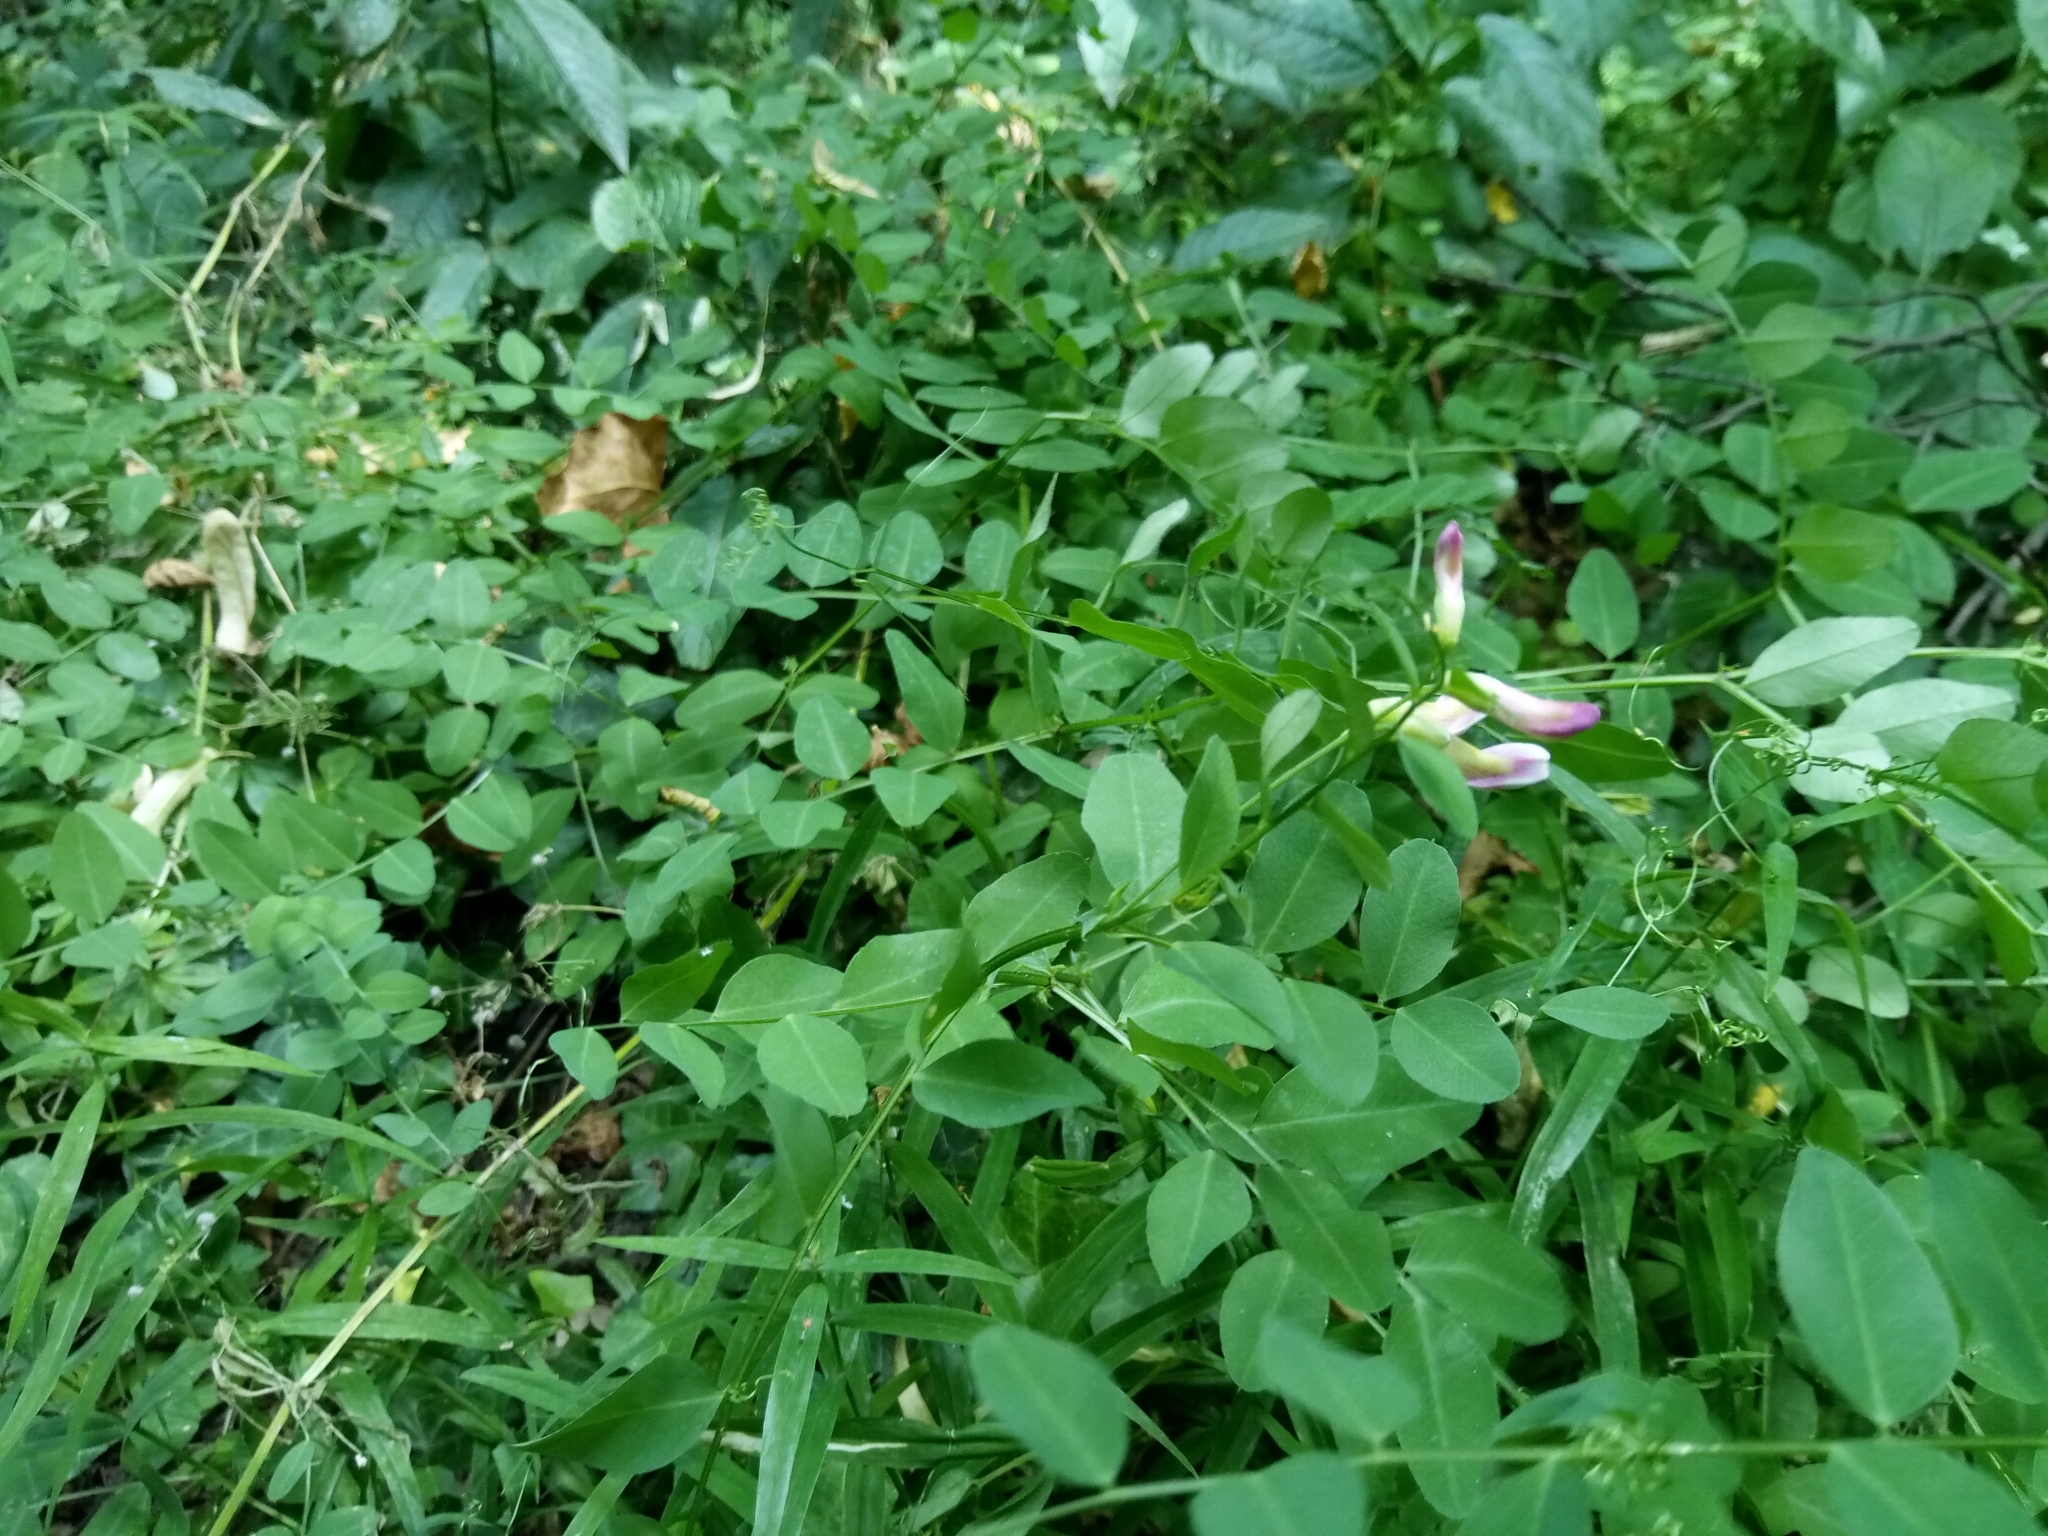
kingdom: Plantae
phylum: Tracheophyta
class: Magnoliopsida
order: Fabales
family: Fabaceae
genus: Vicia
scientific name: Vicia dumetorum
